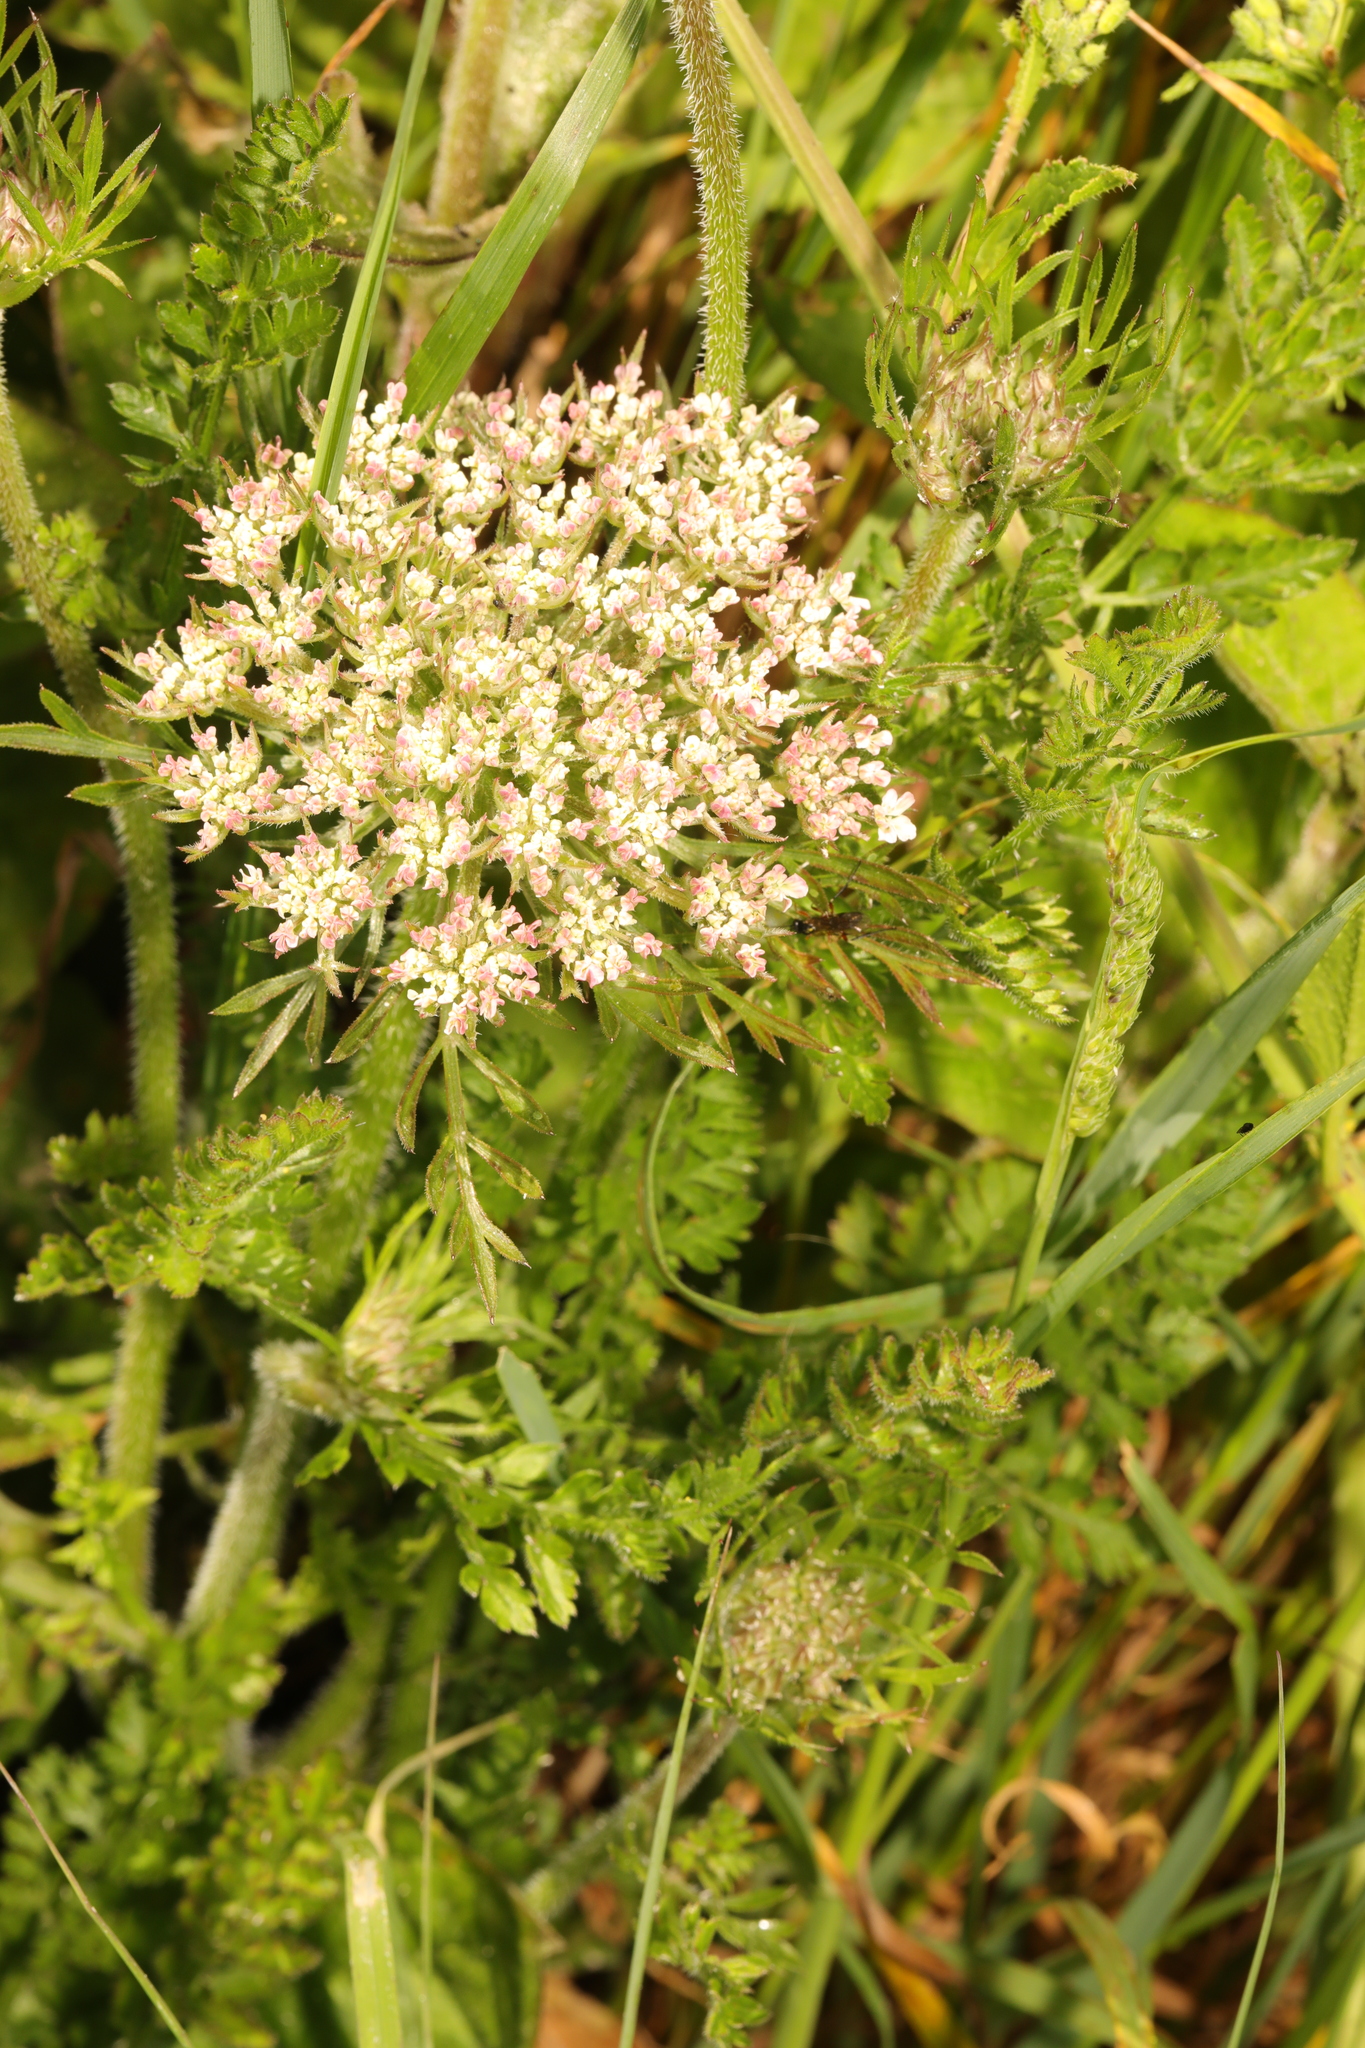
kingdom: Plantae
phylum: Tracheophyta
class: Magnoliopsida
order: Apiales
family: Apiaceae
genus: Daucus
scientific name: Daucus carota
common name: Wild carrot
